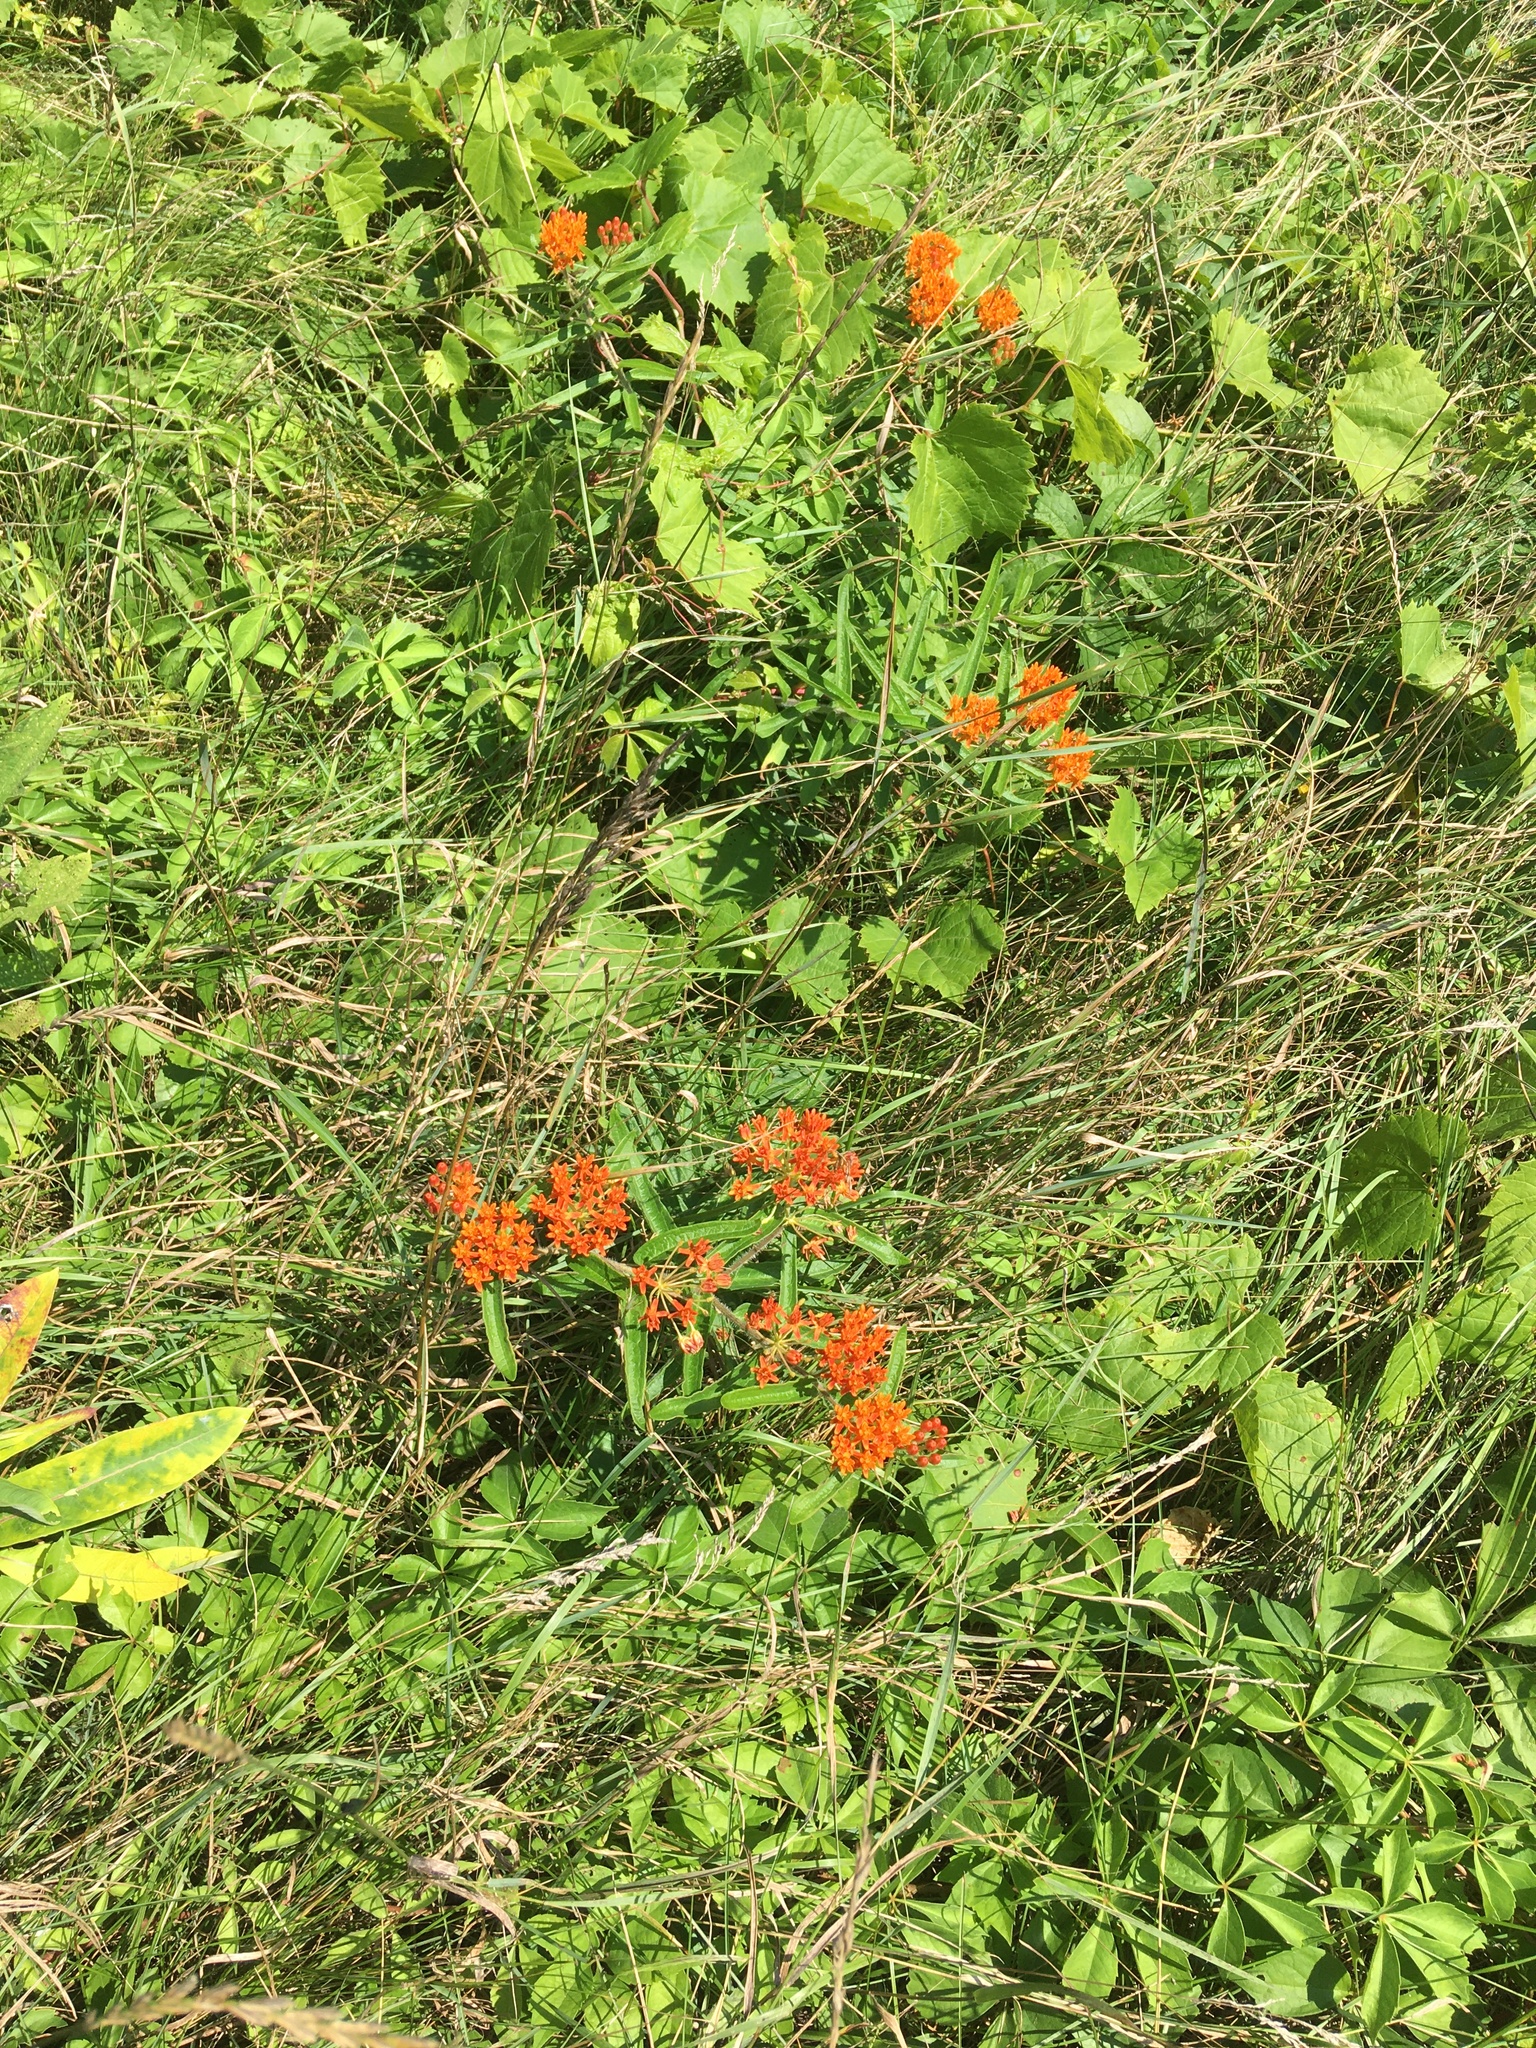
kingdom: Plantae
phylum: Tracheophyta
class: Magnoliopsida
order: Gentianales
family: Apocynaceae
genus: Asclepias
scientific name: Asclepias tuberosa
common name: Butterfly milkweed
